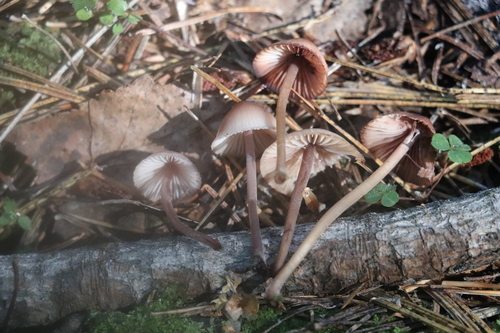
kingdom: Fungi
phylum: Basidiomycota
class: Agaricomycetes
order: Agaricales
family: Mycenaceae
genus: Mycena
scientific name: Mycena haematopus
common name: Burgundydrop bonnet
